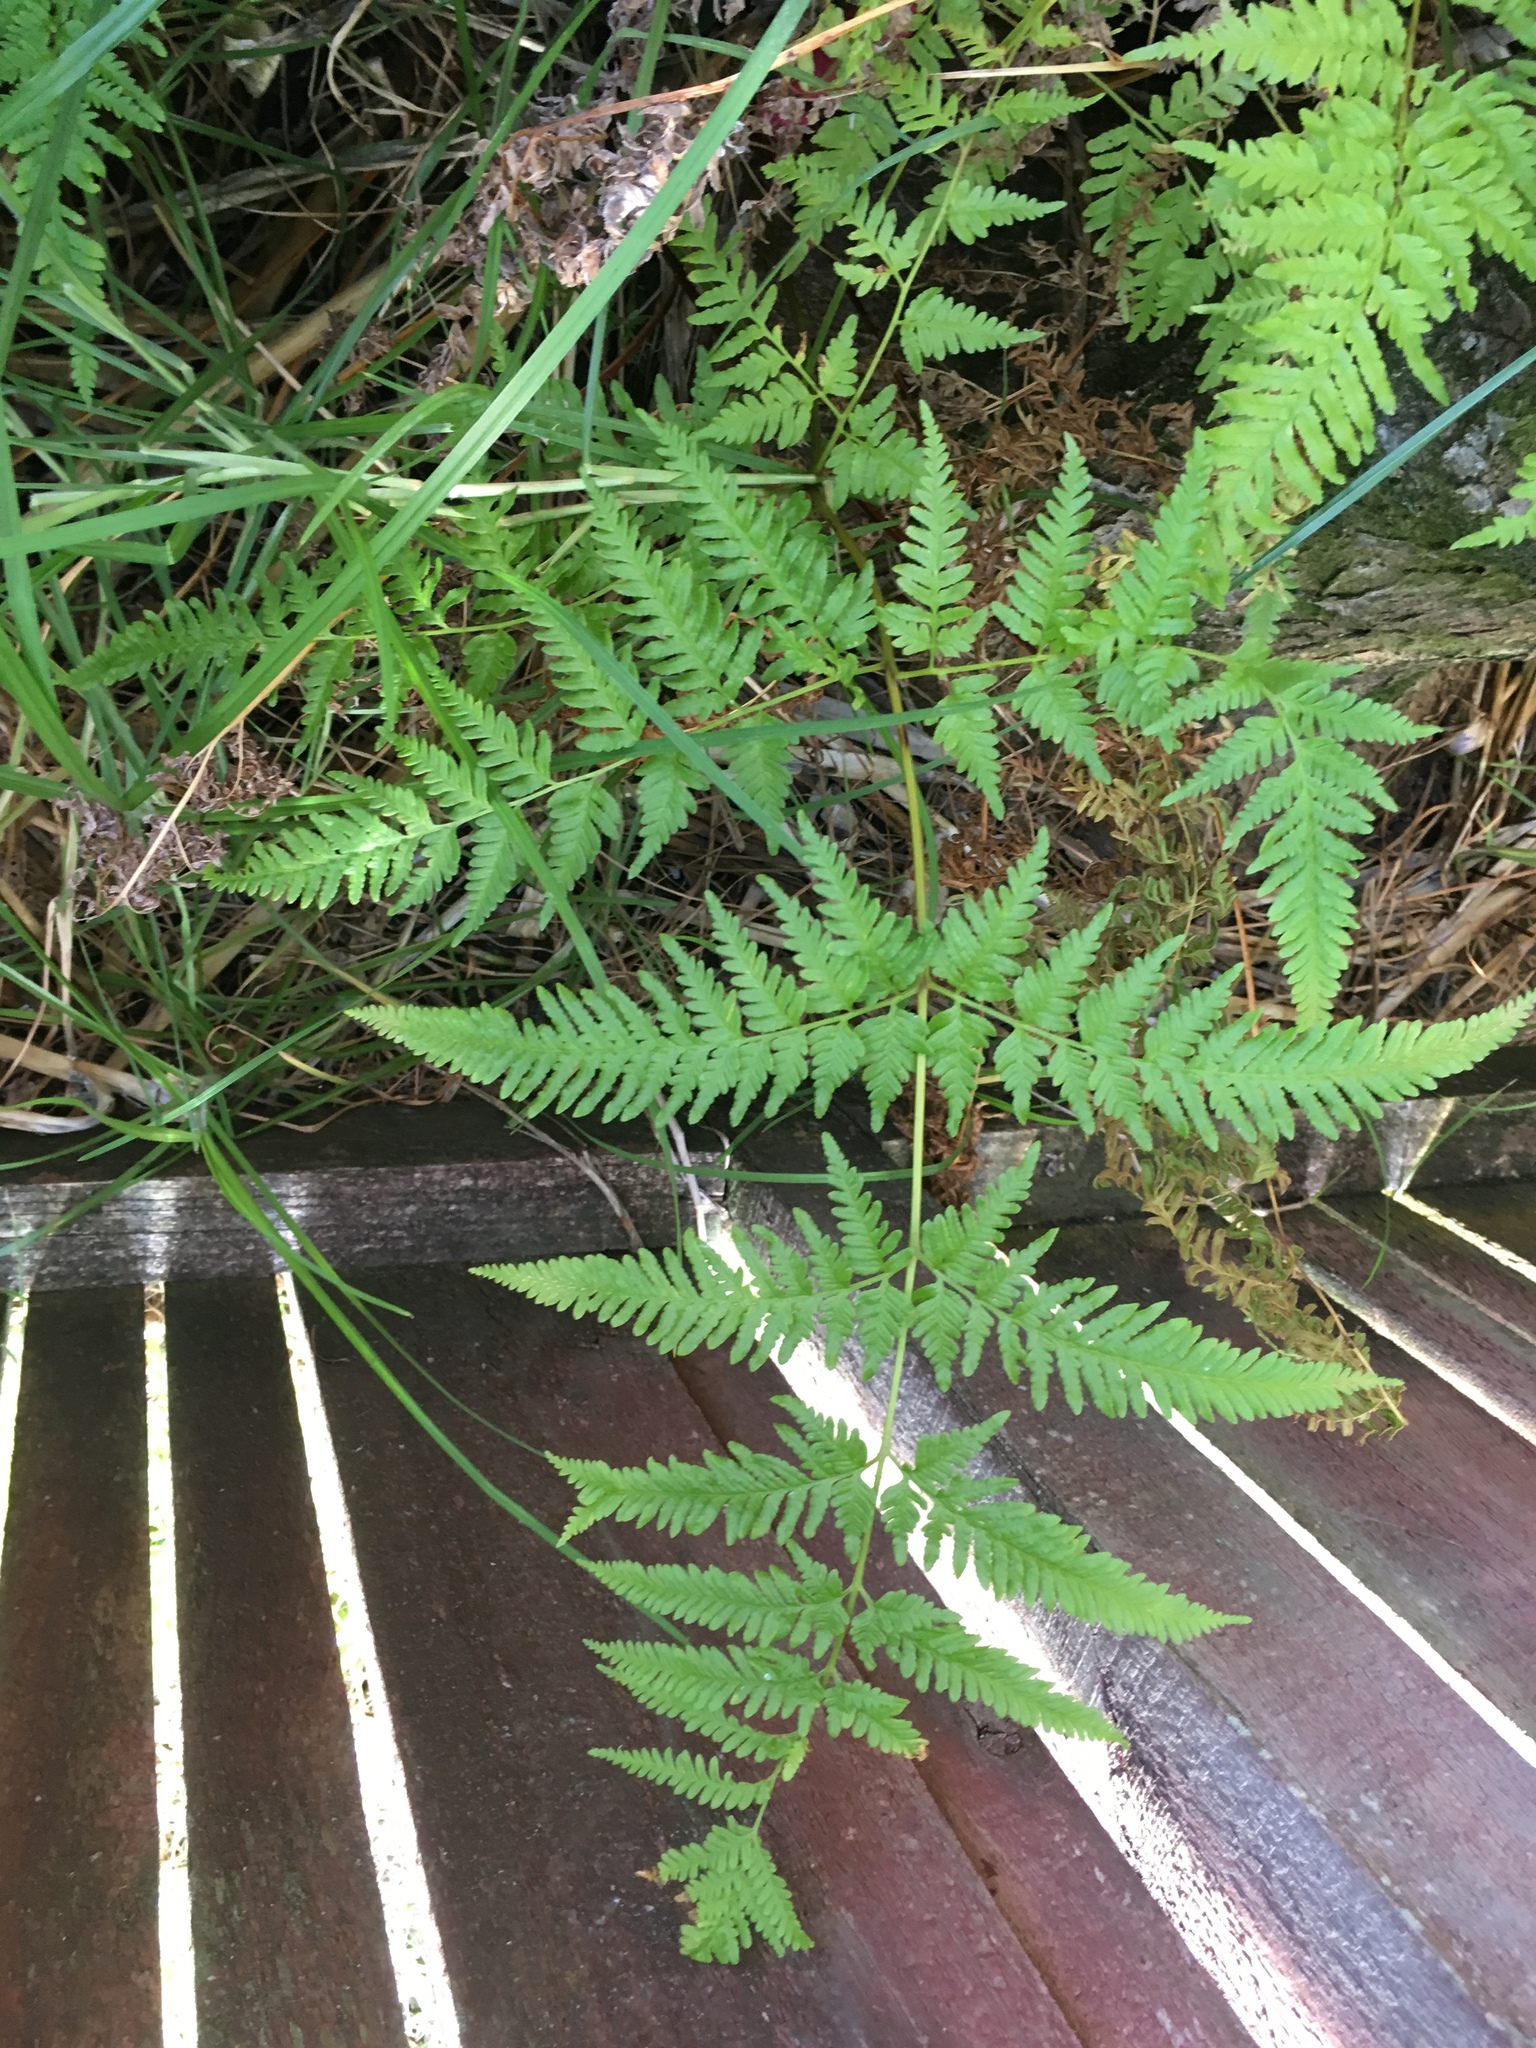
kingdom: Plantae
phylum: Tracheophyta
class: Polypodiopsida
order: Polypodiales
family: Pteridaceae
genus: Pteris
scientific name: Pteris tremula
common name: Australian brake
